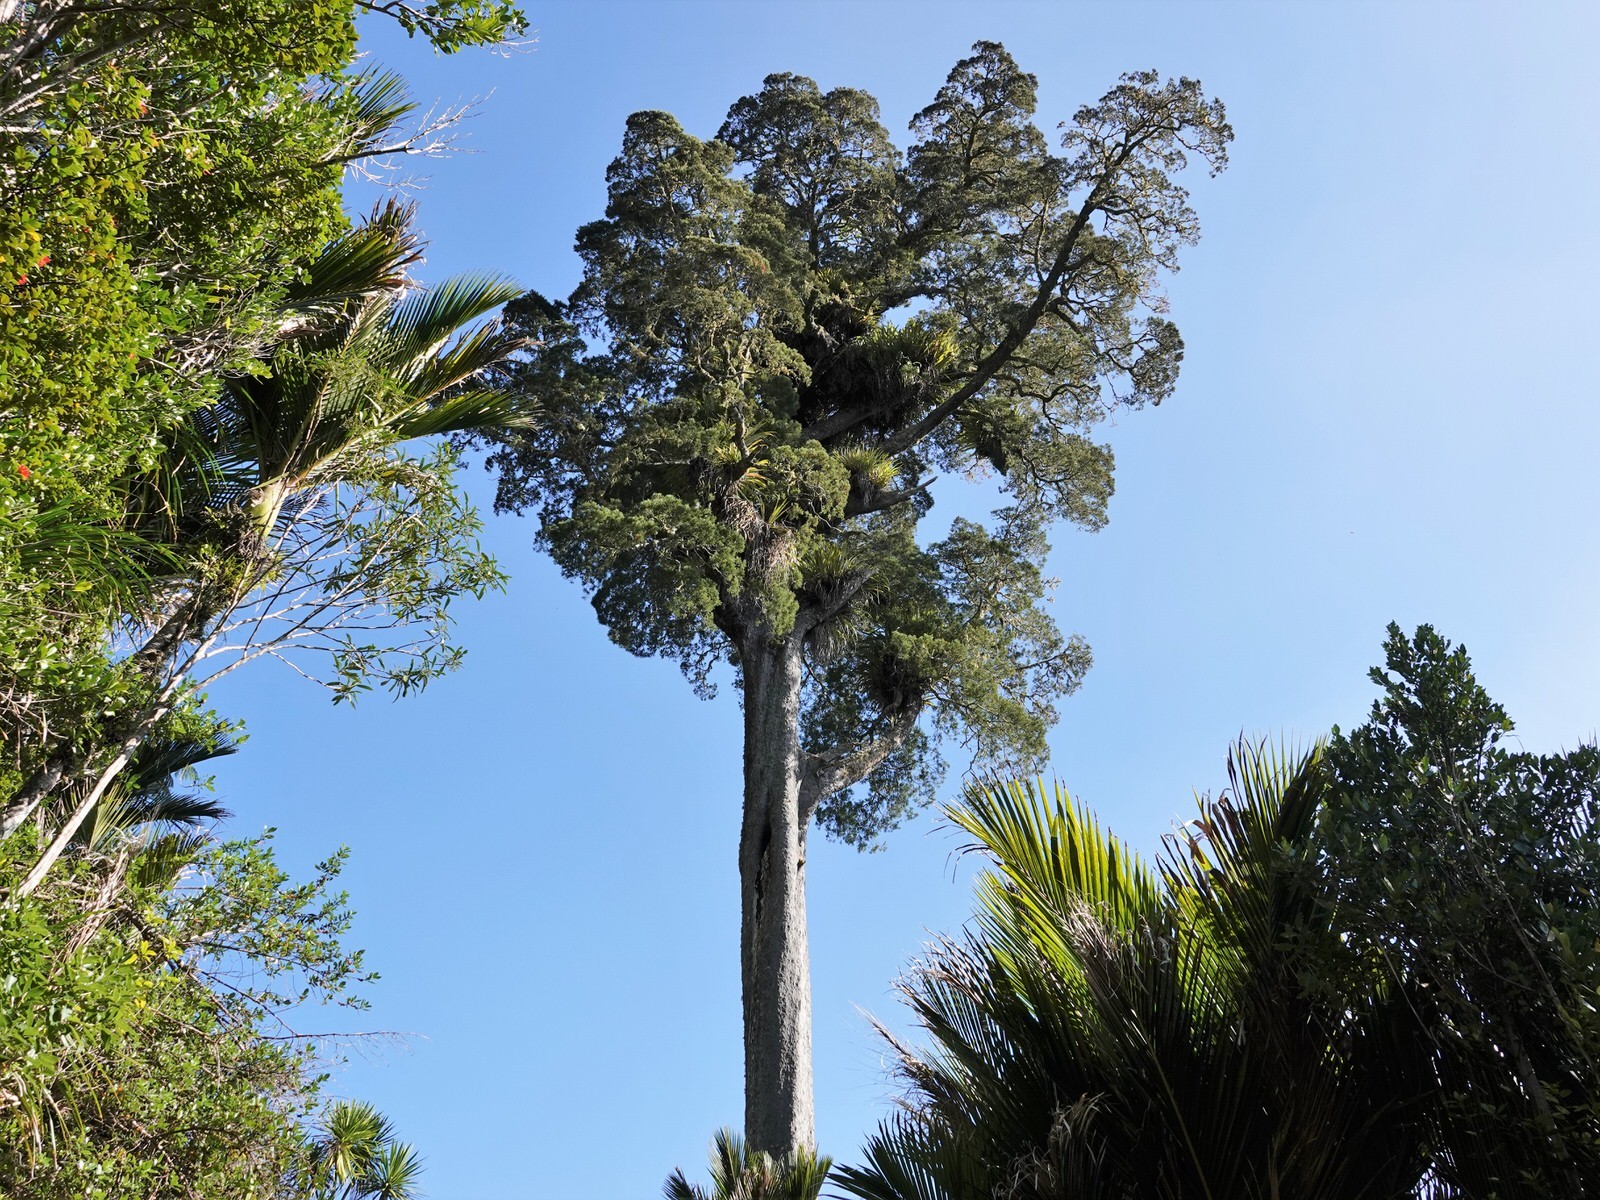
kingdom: Plantae
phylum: Tracheophyta
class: Pinopsida
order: Pinales
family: Podocarpaceae
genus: Dacrycarpus
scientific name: Dacrycarpus dacrydioides
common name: White pine
